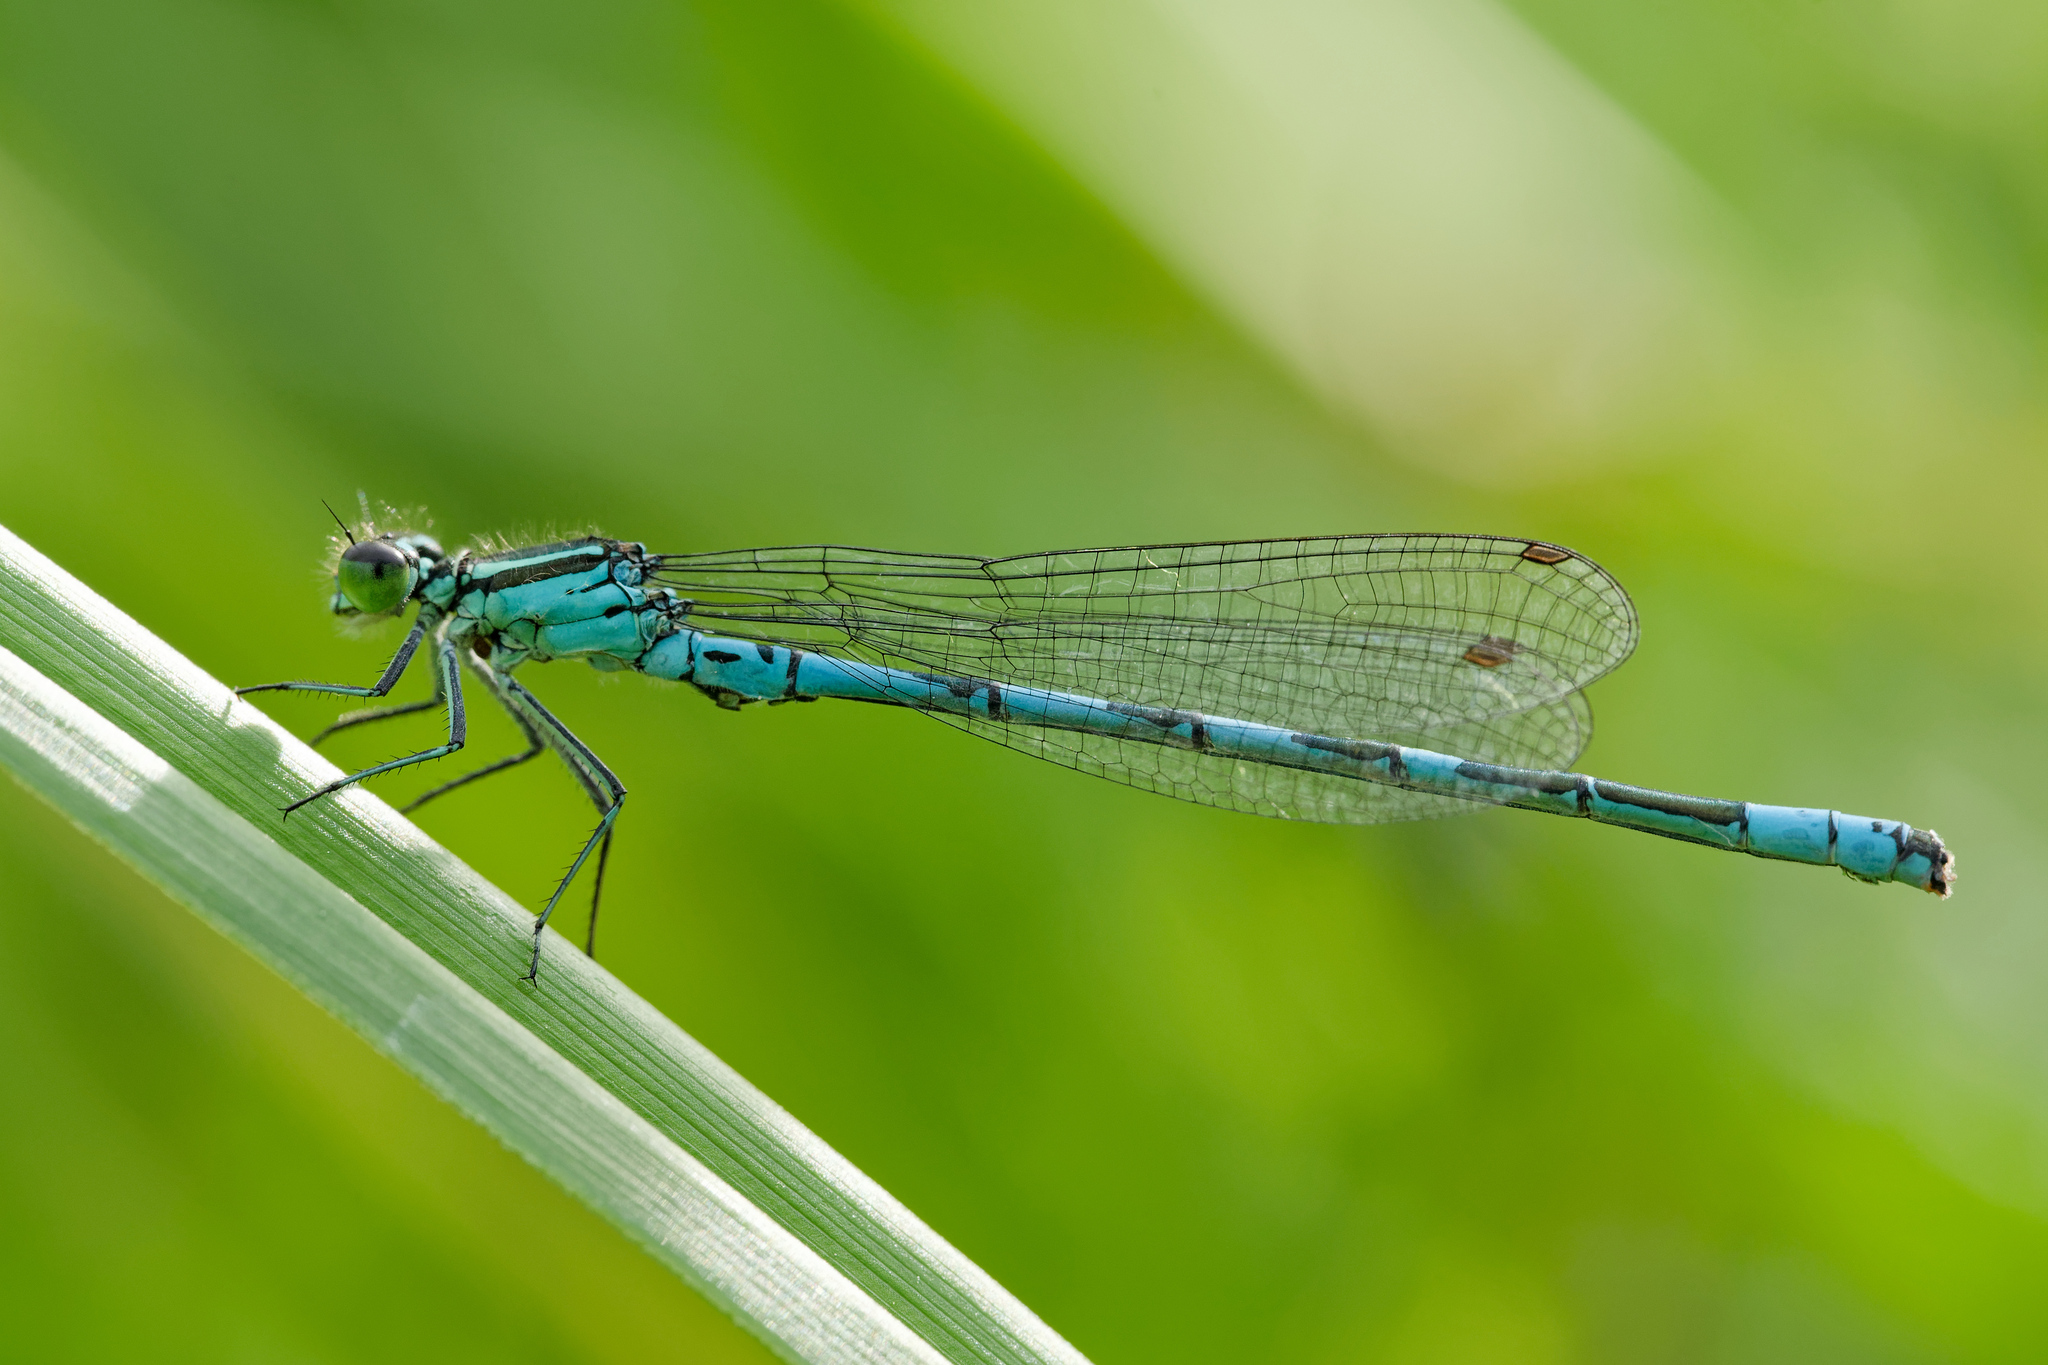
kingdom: Animalia
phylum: Arthropoda
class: Insecta
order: Odonata
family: Coenagrionidae
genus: Coenagrion
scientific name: Coenagrion hastulatum
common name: Spearhead bluet
